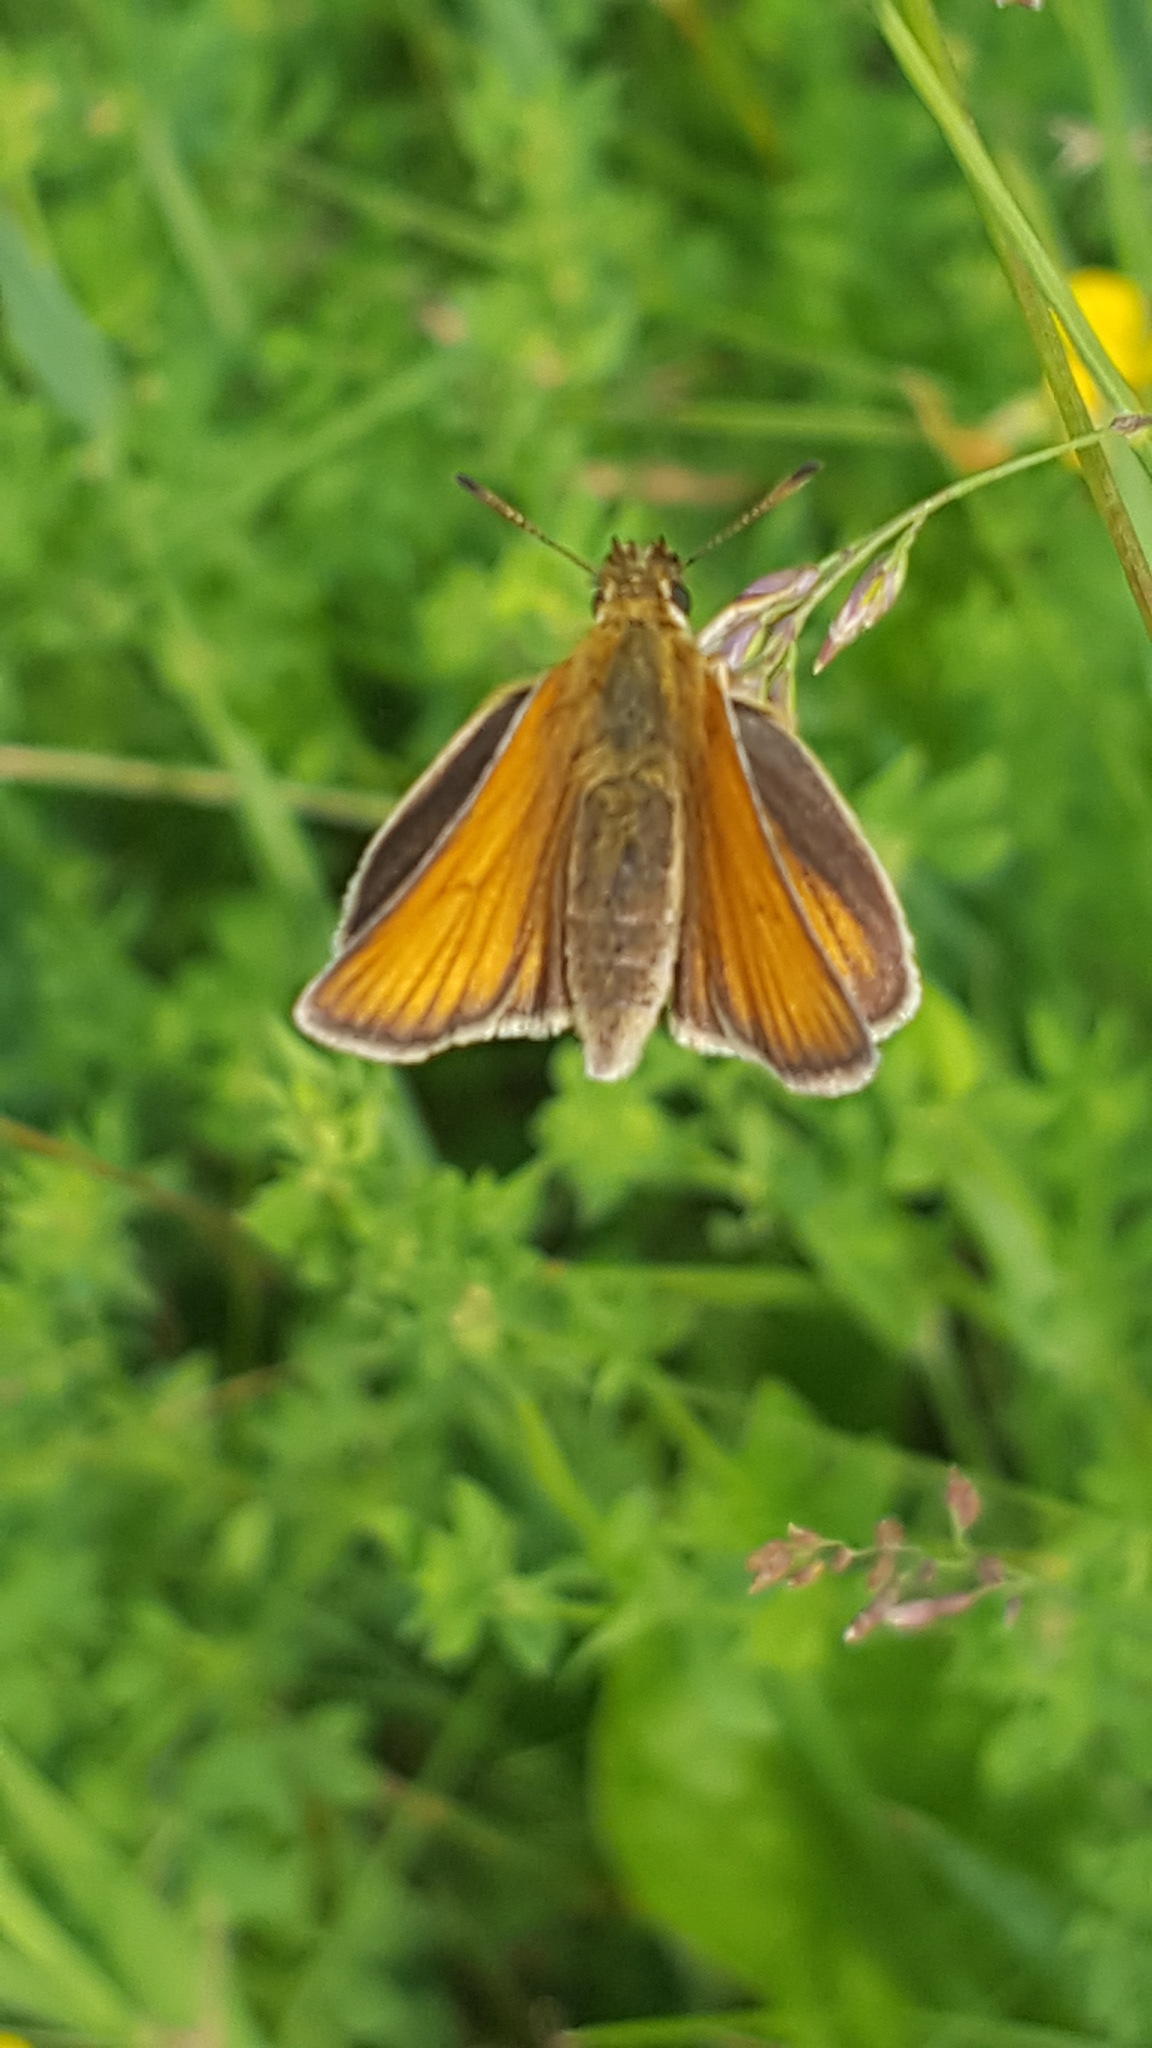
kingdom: Animalia
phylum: Arthropoda
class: Insecta
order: Lepidoptera
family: Hesperiidae
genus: Thymelicus
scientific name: Thymelicus lineola
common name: Essex skipper
